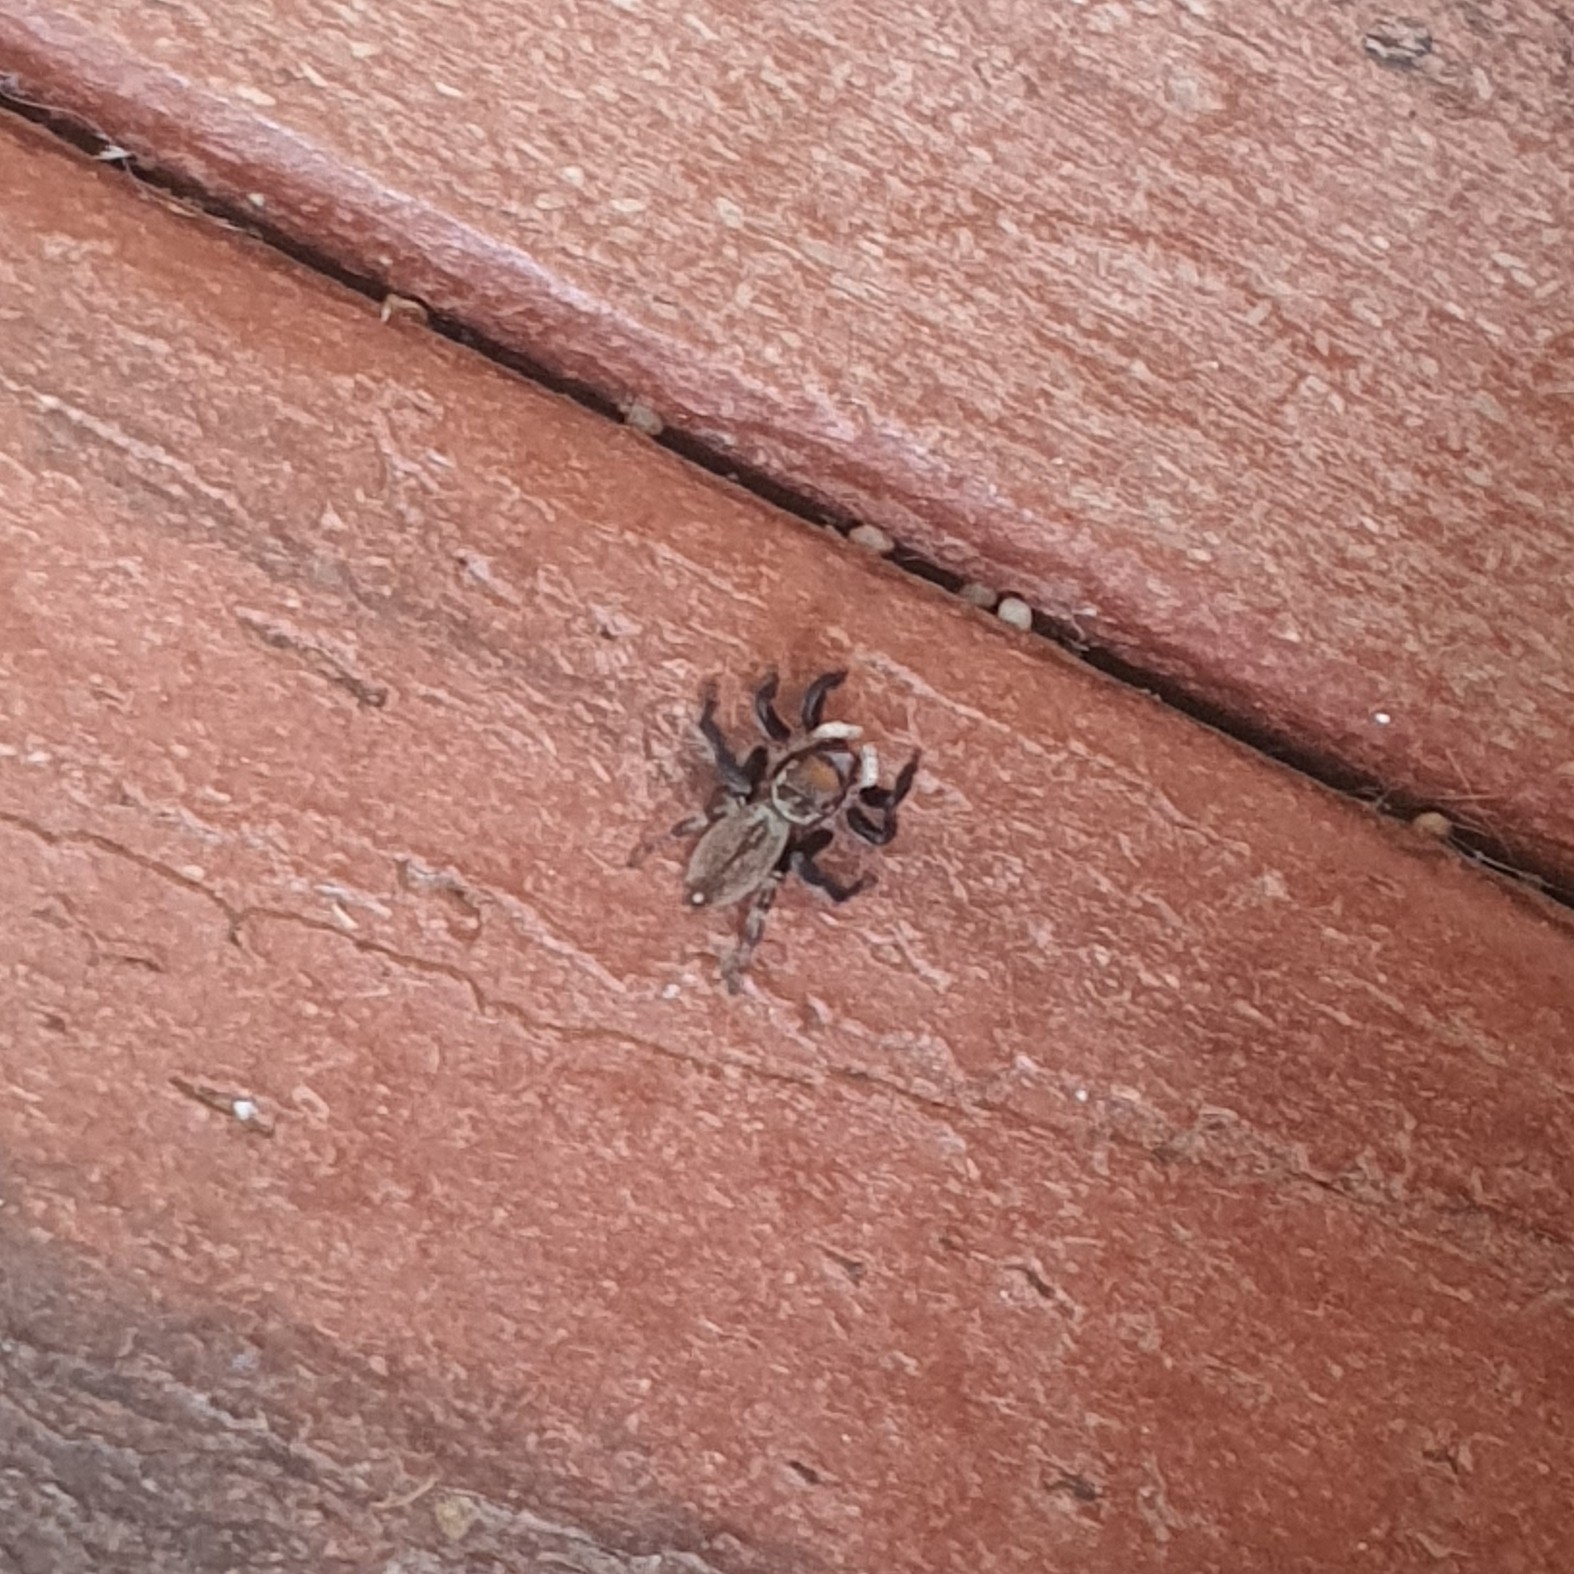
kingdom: Animalia
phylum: Arthropoda
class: Arachnida
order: Araneae
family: Salticidae
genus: Maratus
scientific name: Maratus griseus
